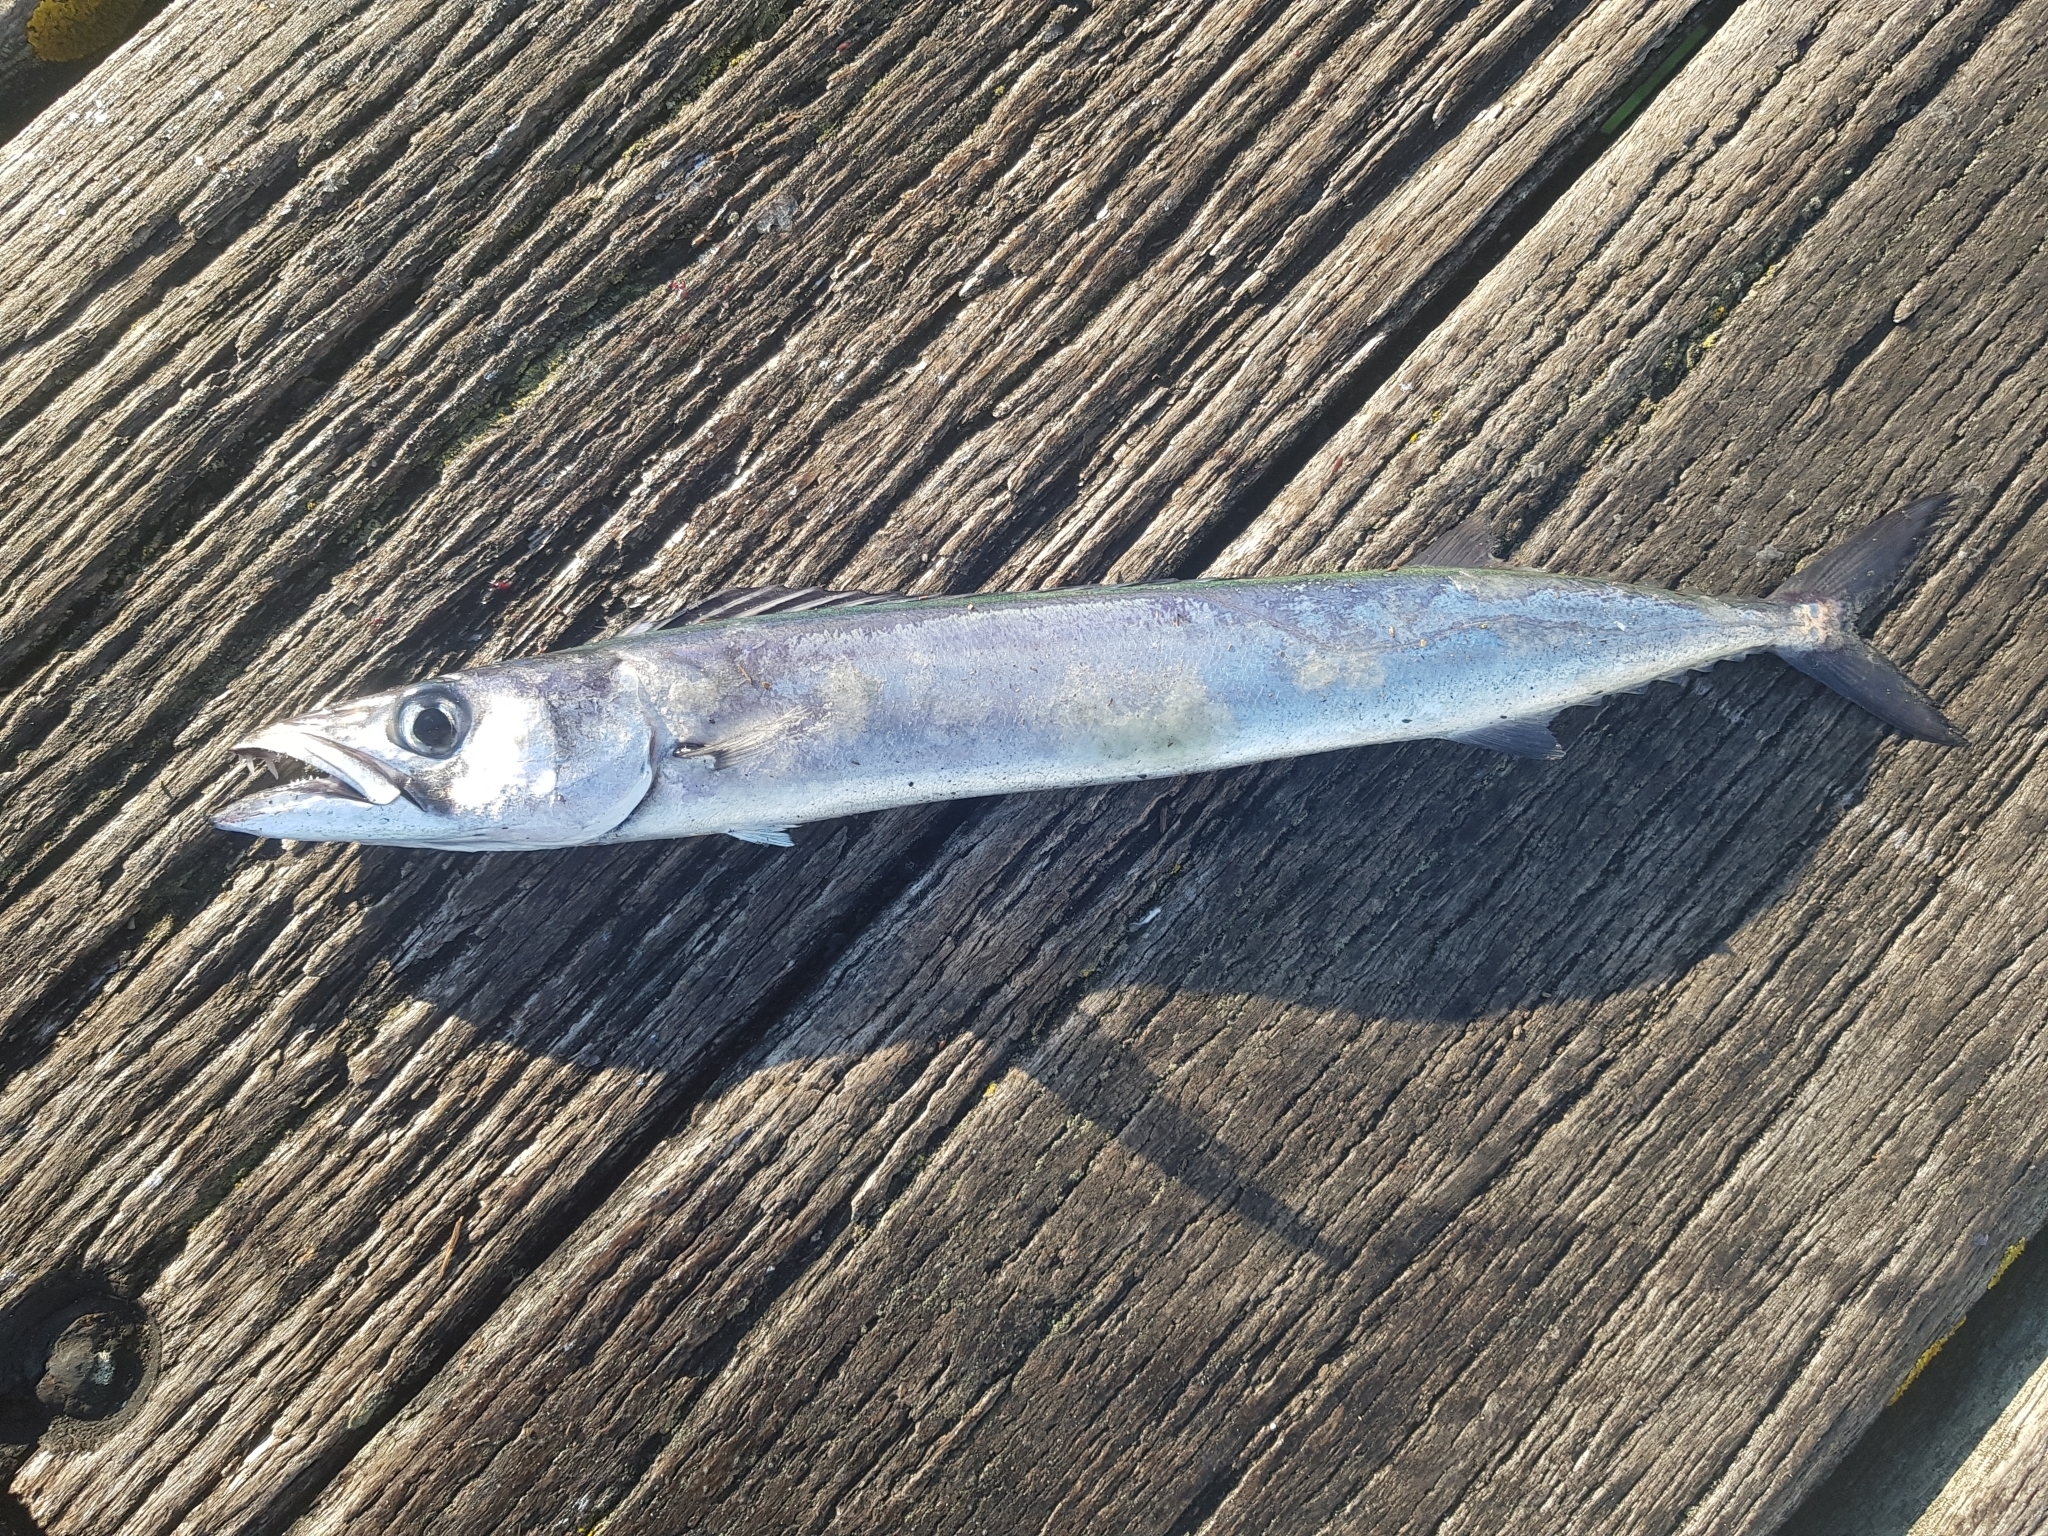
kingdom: Animalia
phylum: Chordata
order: Perciformes
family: Gempylidae
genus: Thyrsites
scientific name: Thyrsites atun
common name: Snoek
